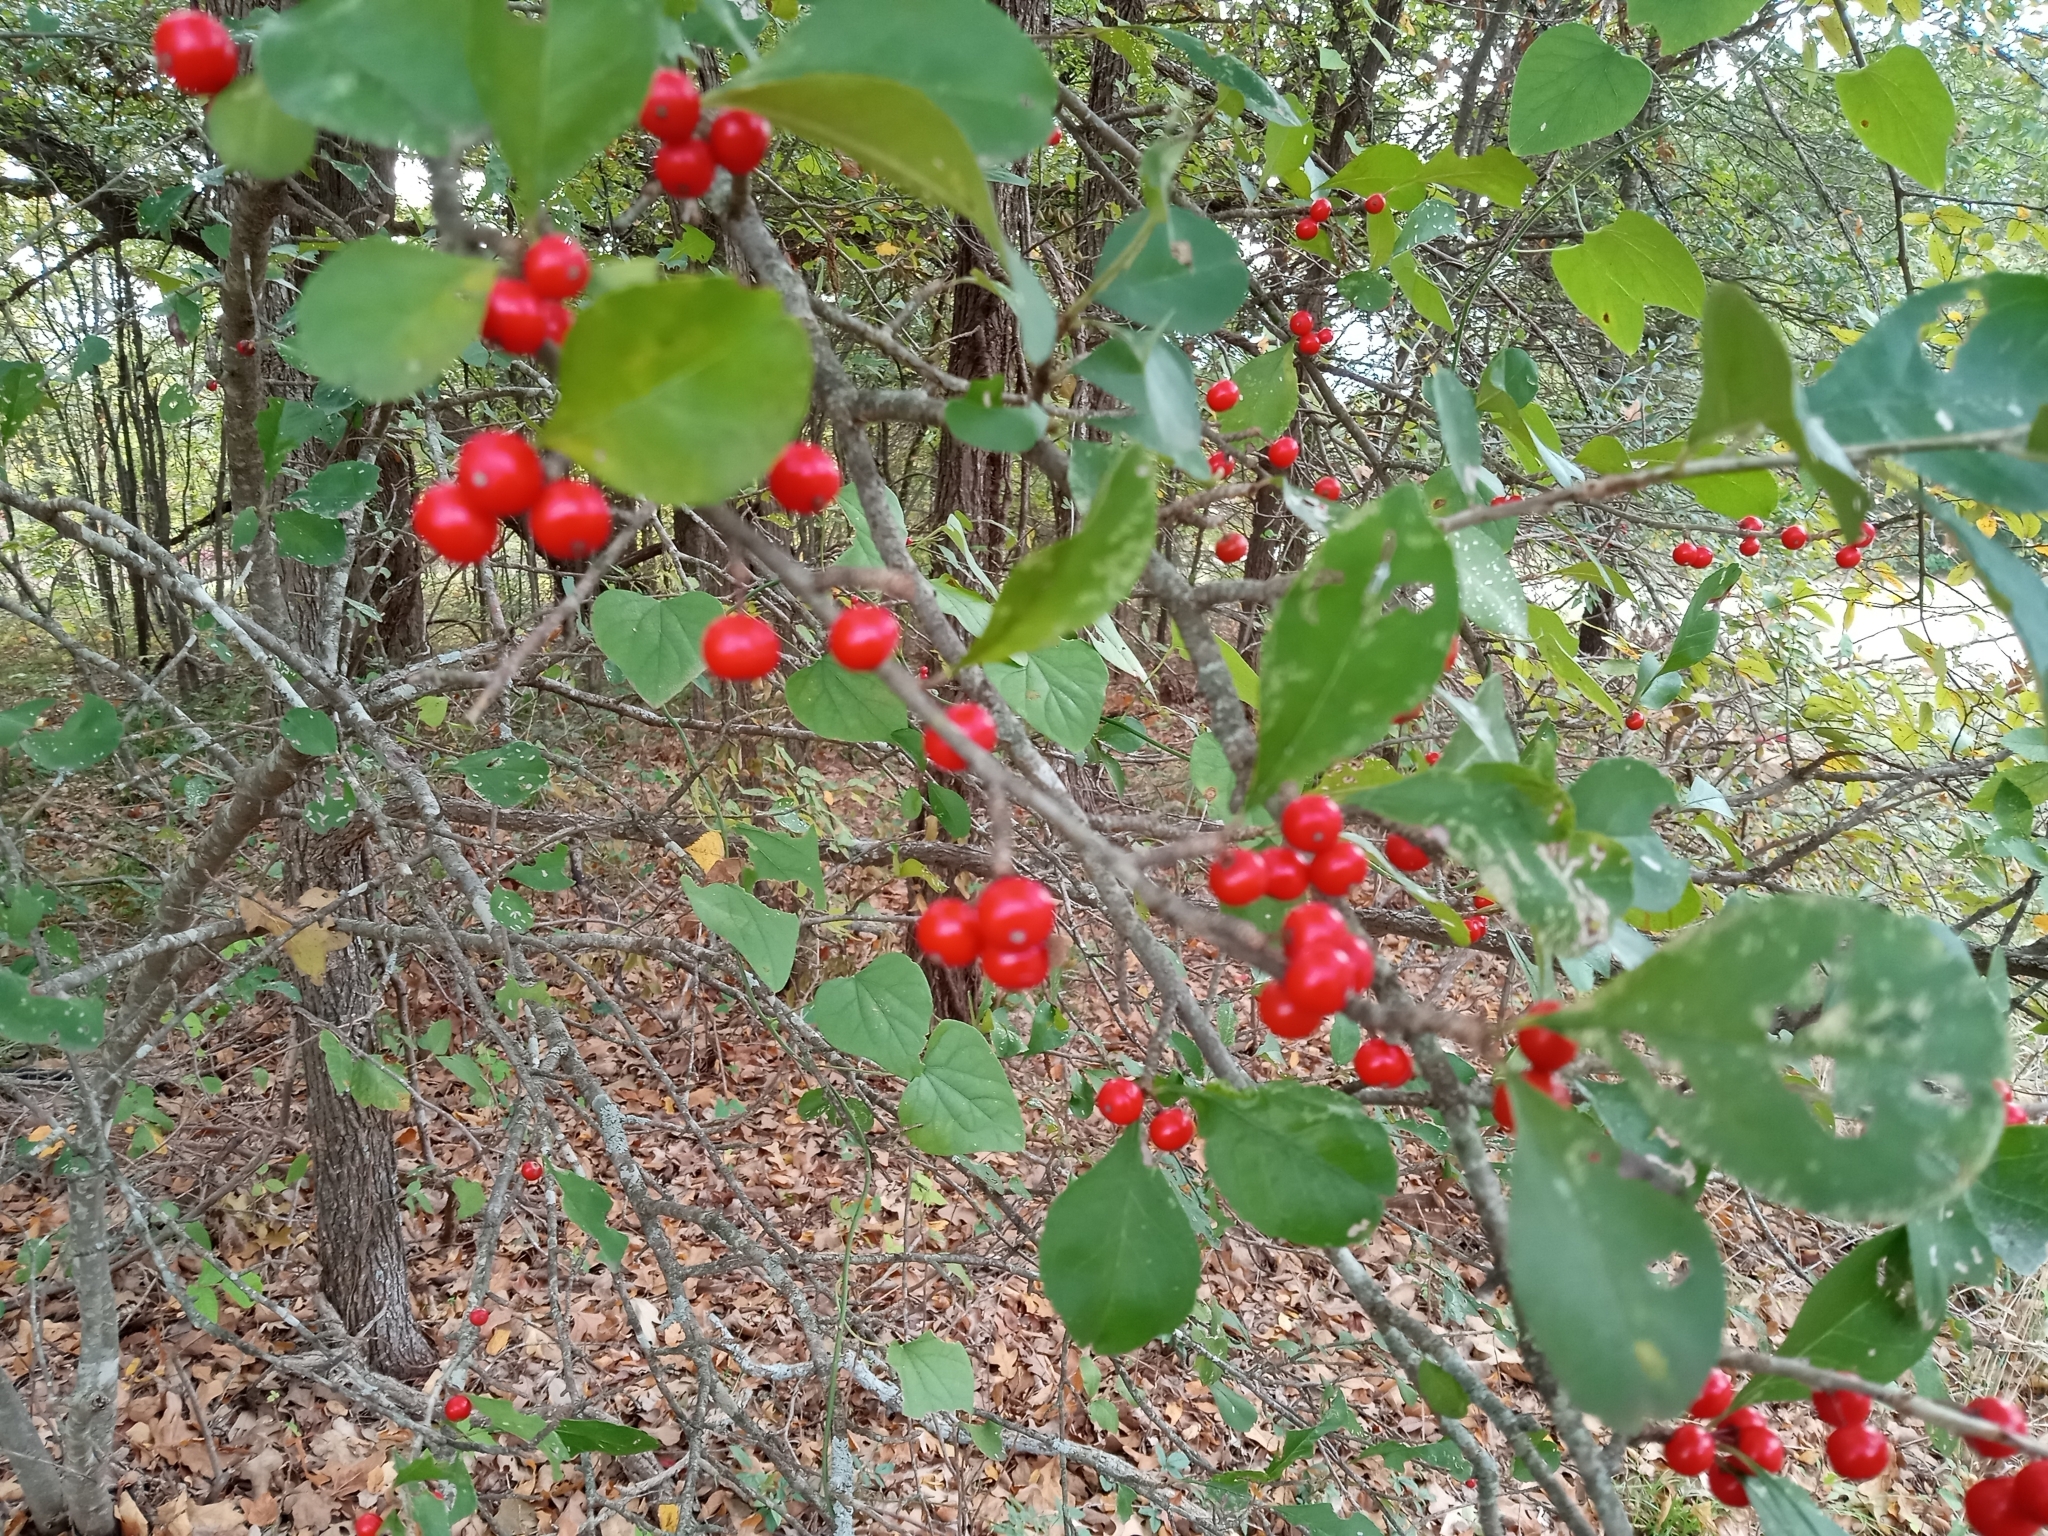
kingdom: Plantae
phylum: Tracheophyta
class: Magnoliopsida
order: Aquifoliales
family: Aquifoliaceae
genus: Ilex
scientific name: Ilex decidua
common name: Possum-haw
